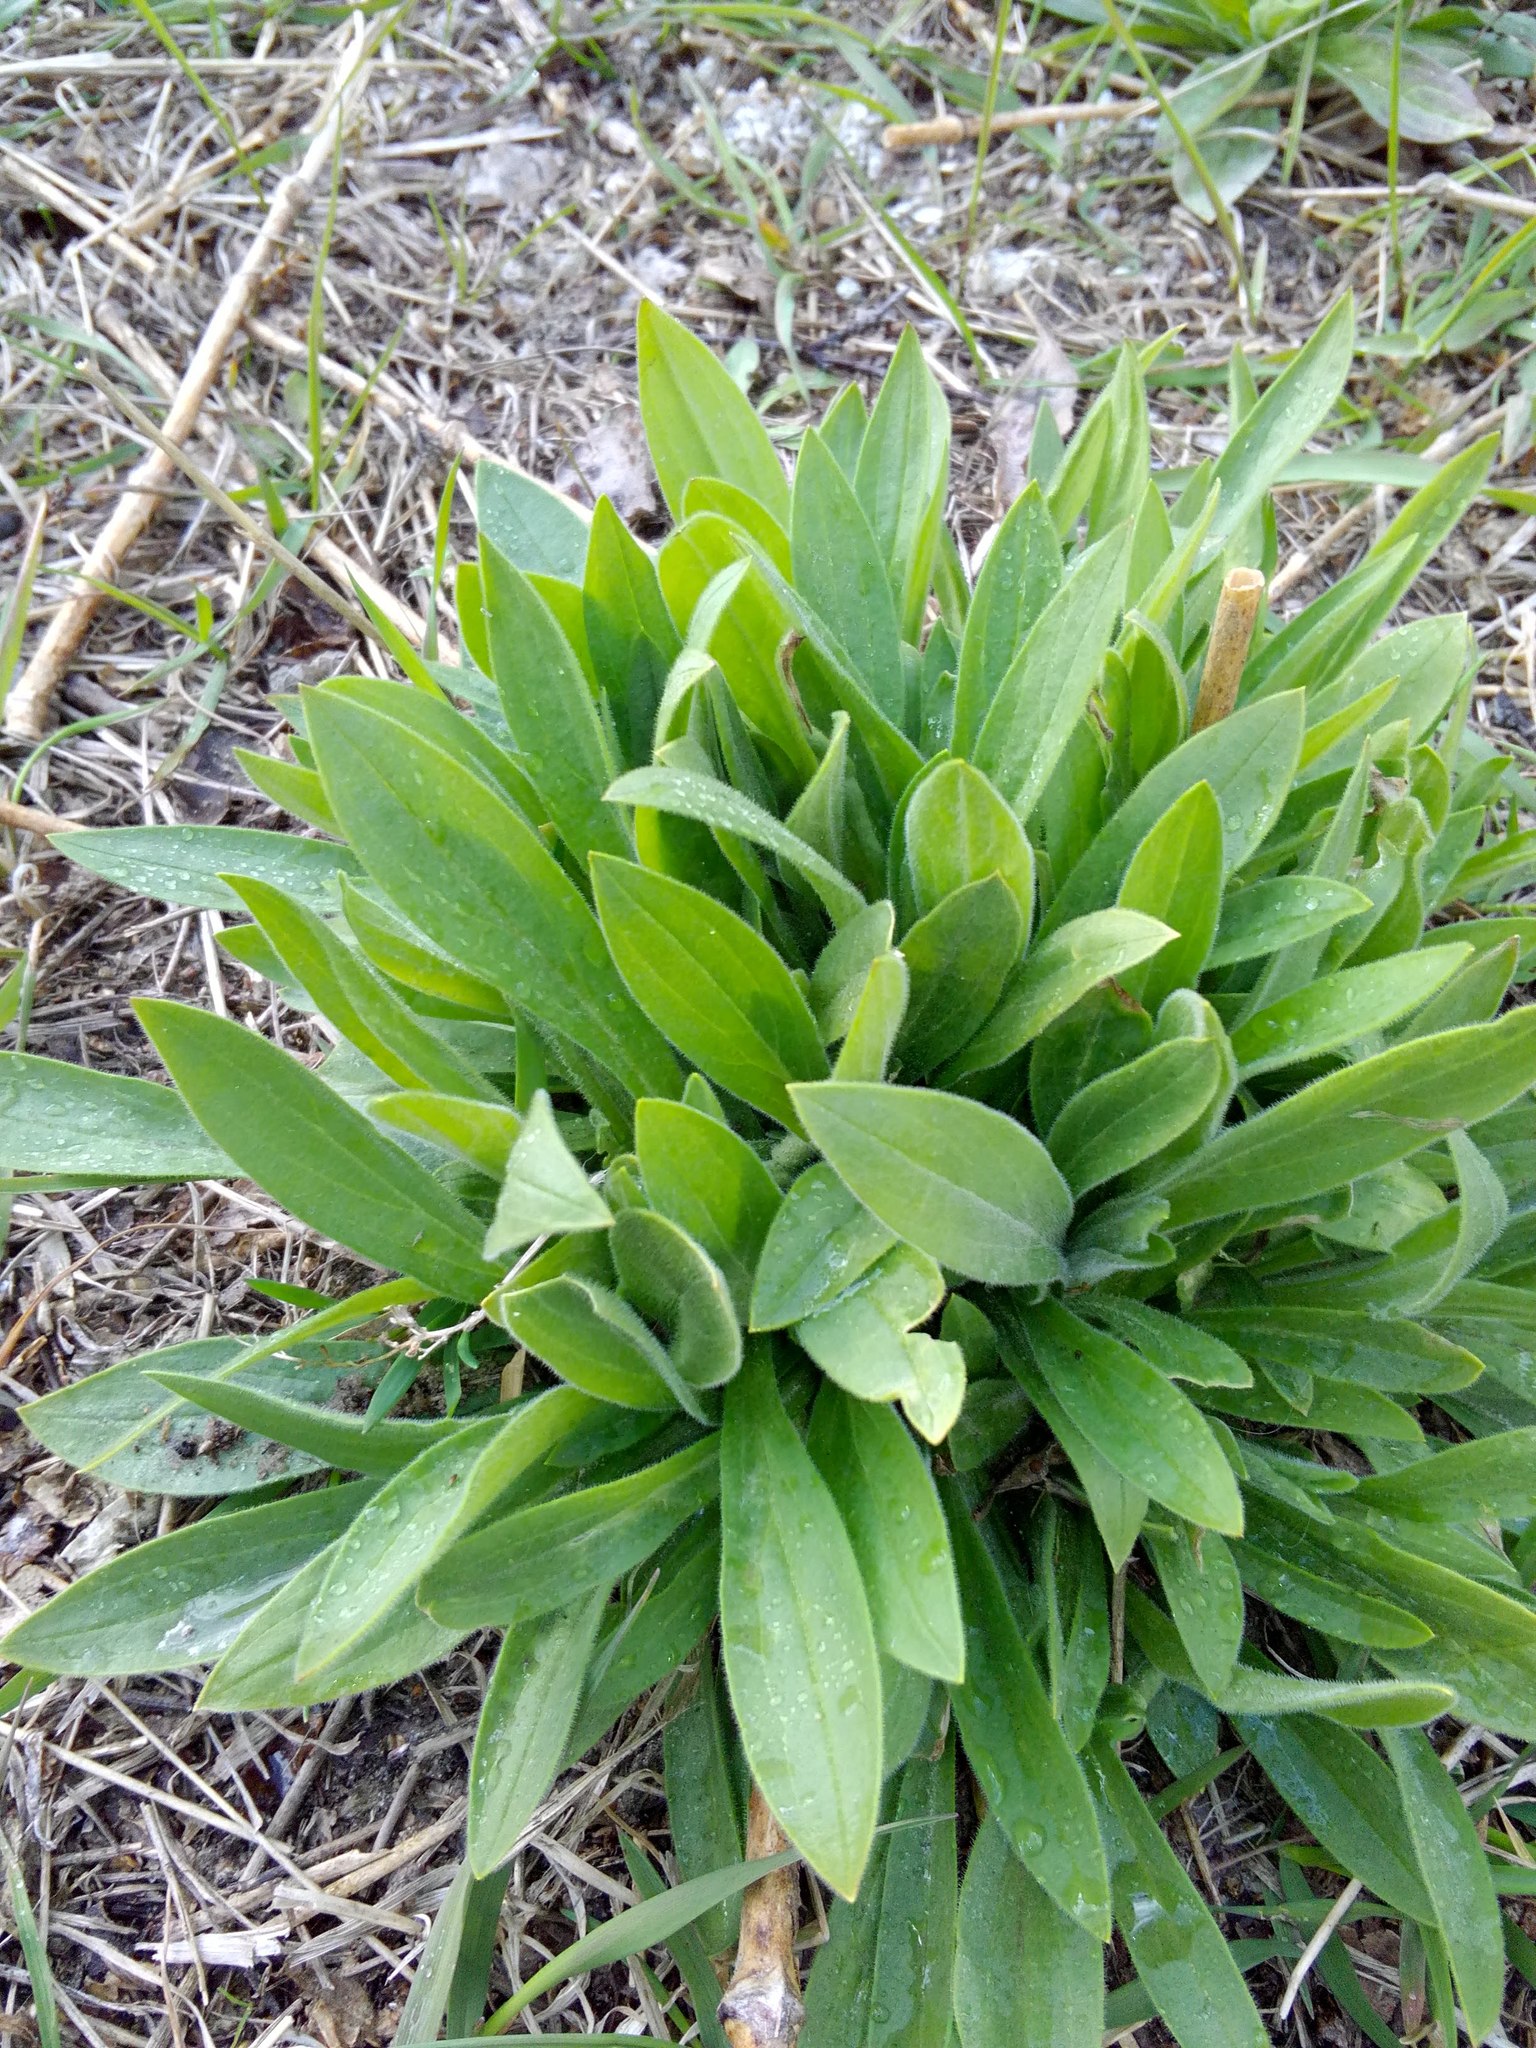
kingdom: Plantae
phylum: Tracheophyta
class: Magnoliopsida
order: Caryophyllales
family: Caryophyllaceae
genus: Silene
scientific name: Silene latifolia
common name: White campion
